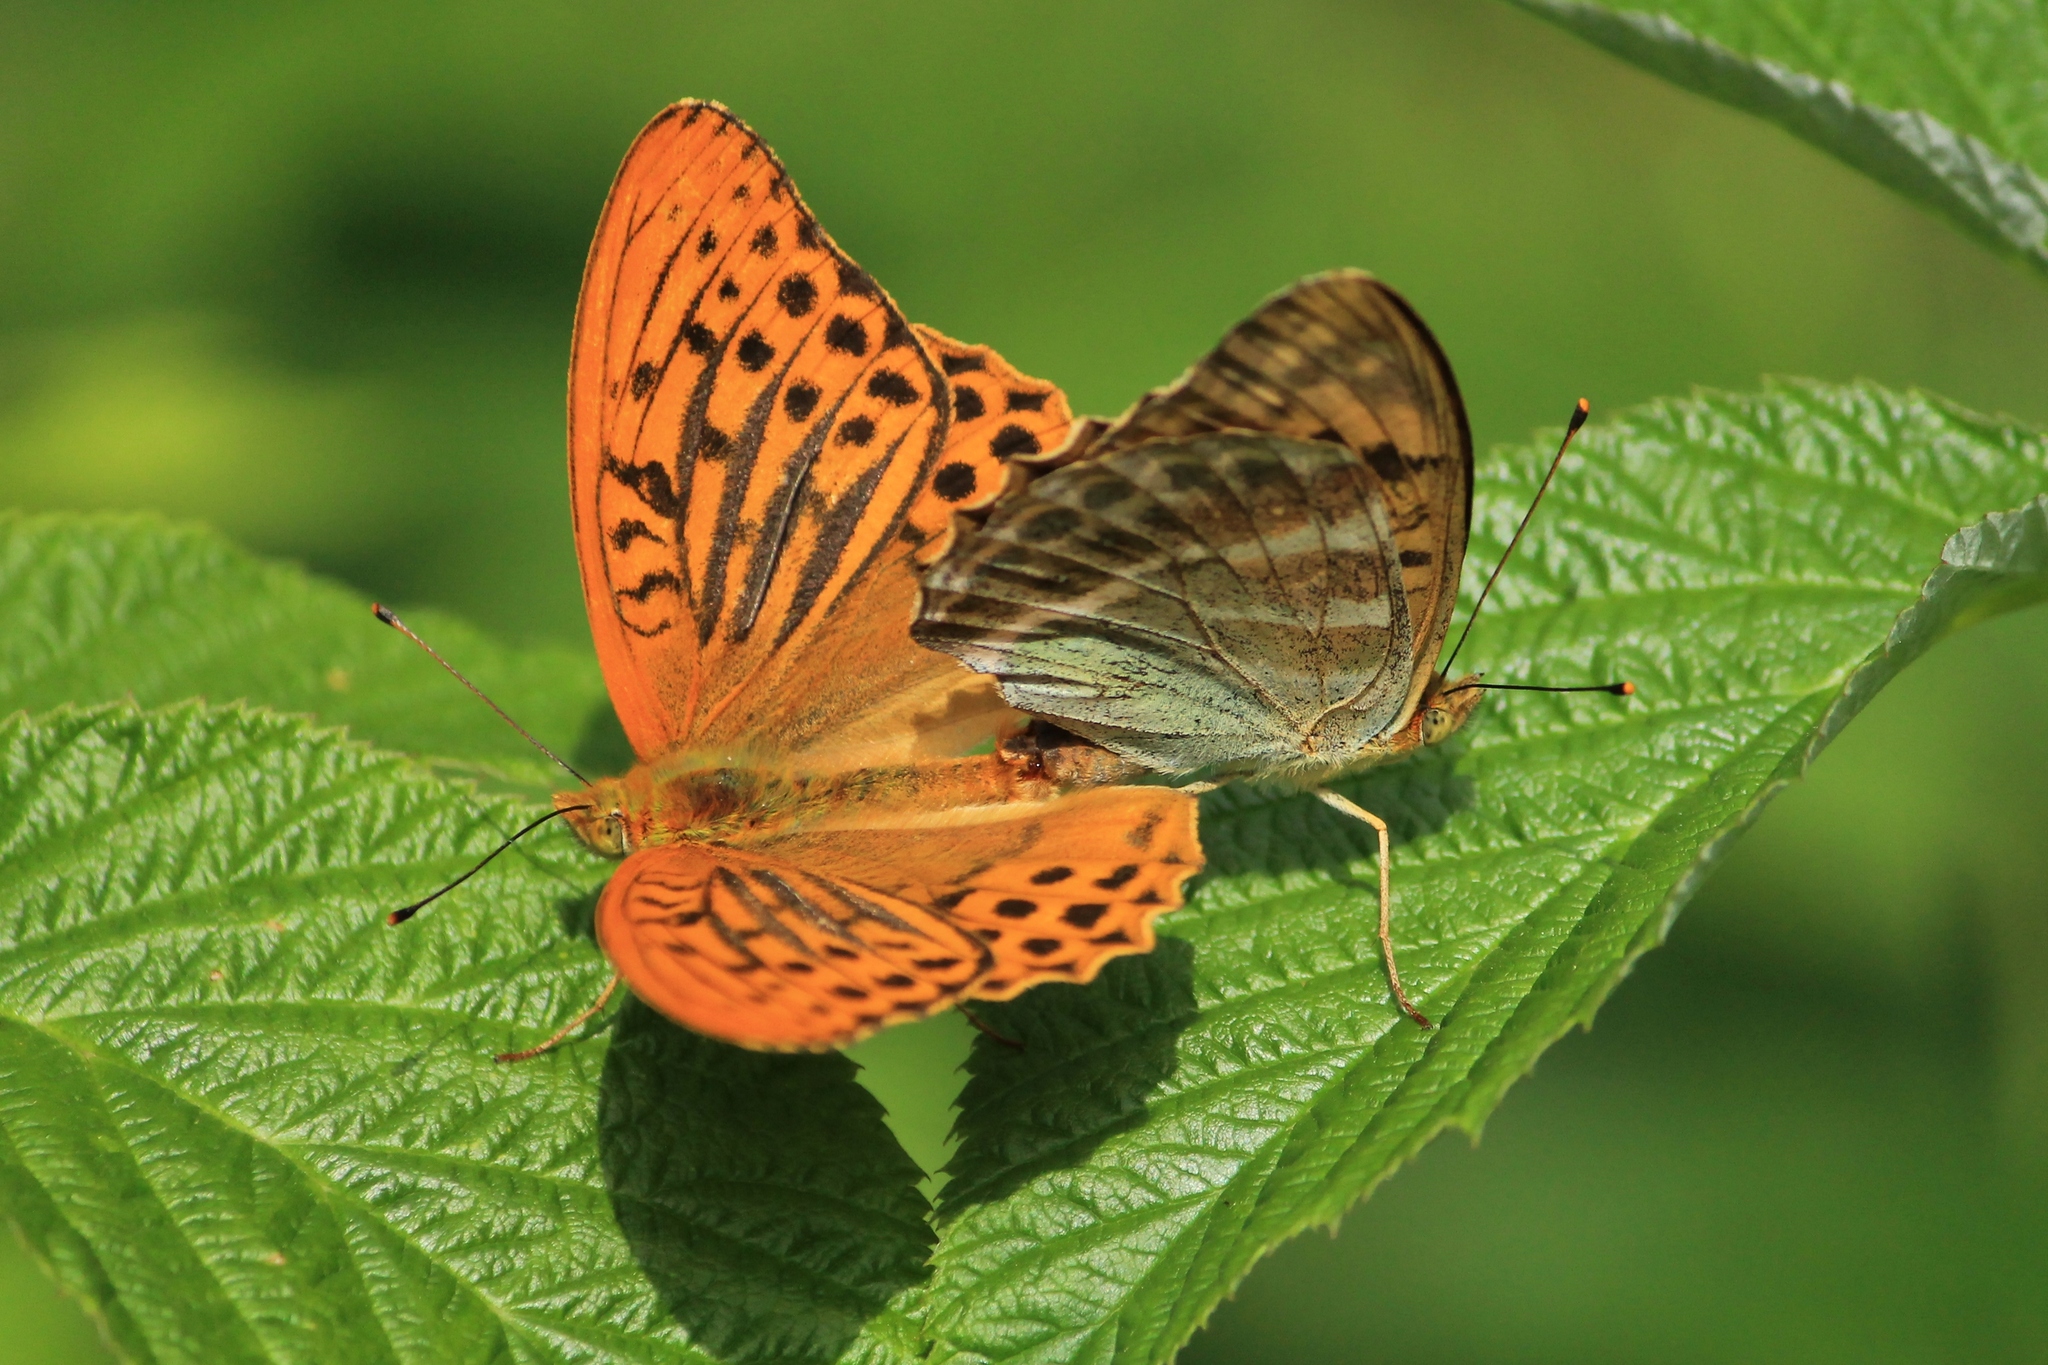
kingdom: Animalia
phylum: Arthropoda
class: Insecta
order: Lepidoptera
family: Nymphalidae
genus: Argynnis
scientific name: Argynnis paphia
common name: Silver-washed fritillary
